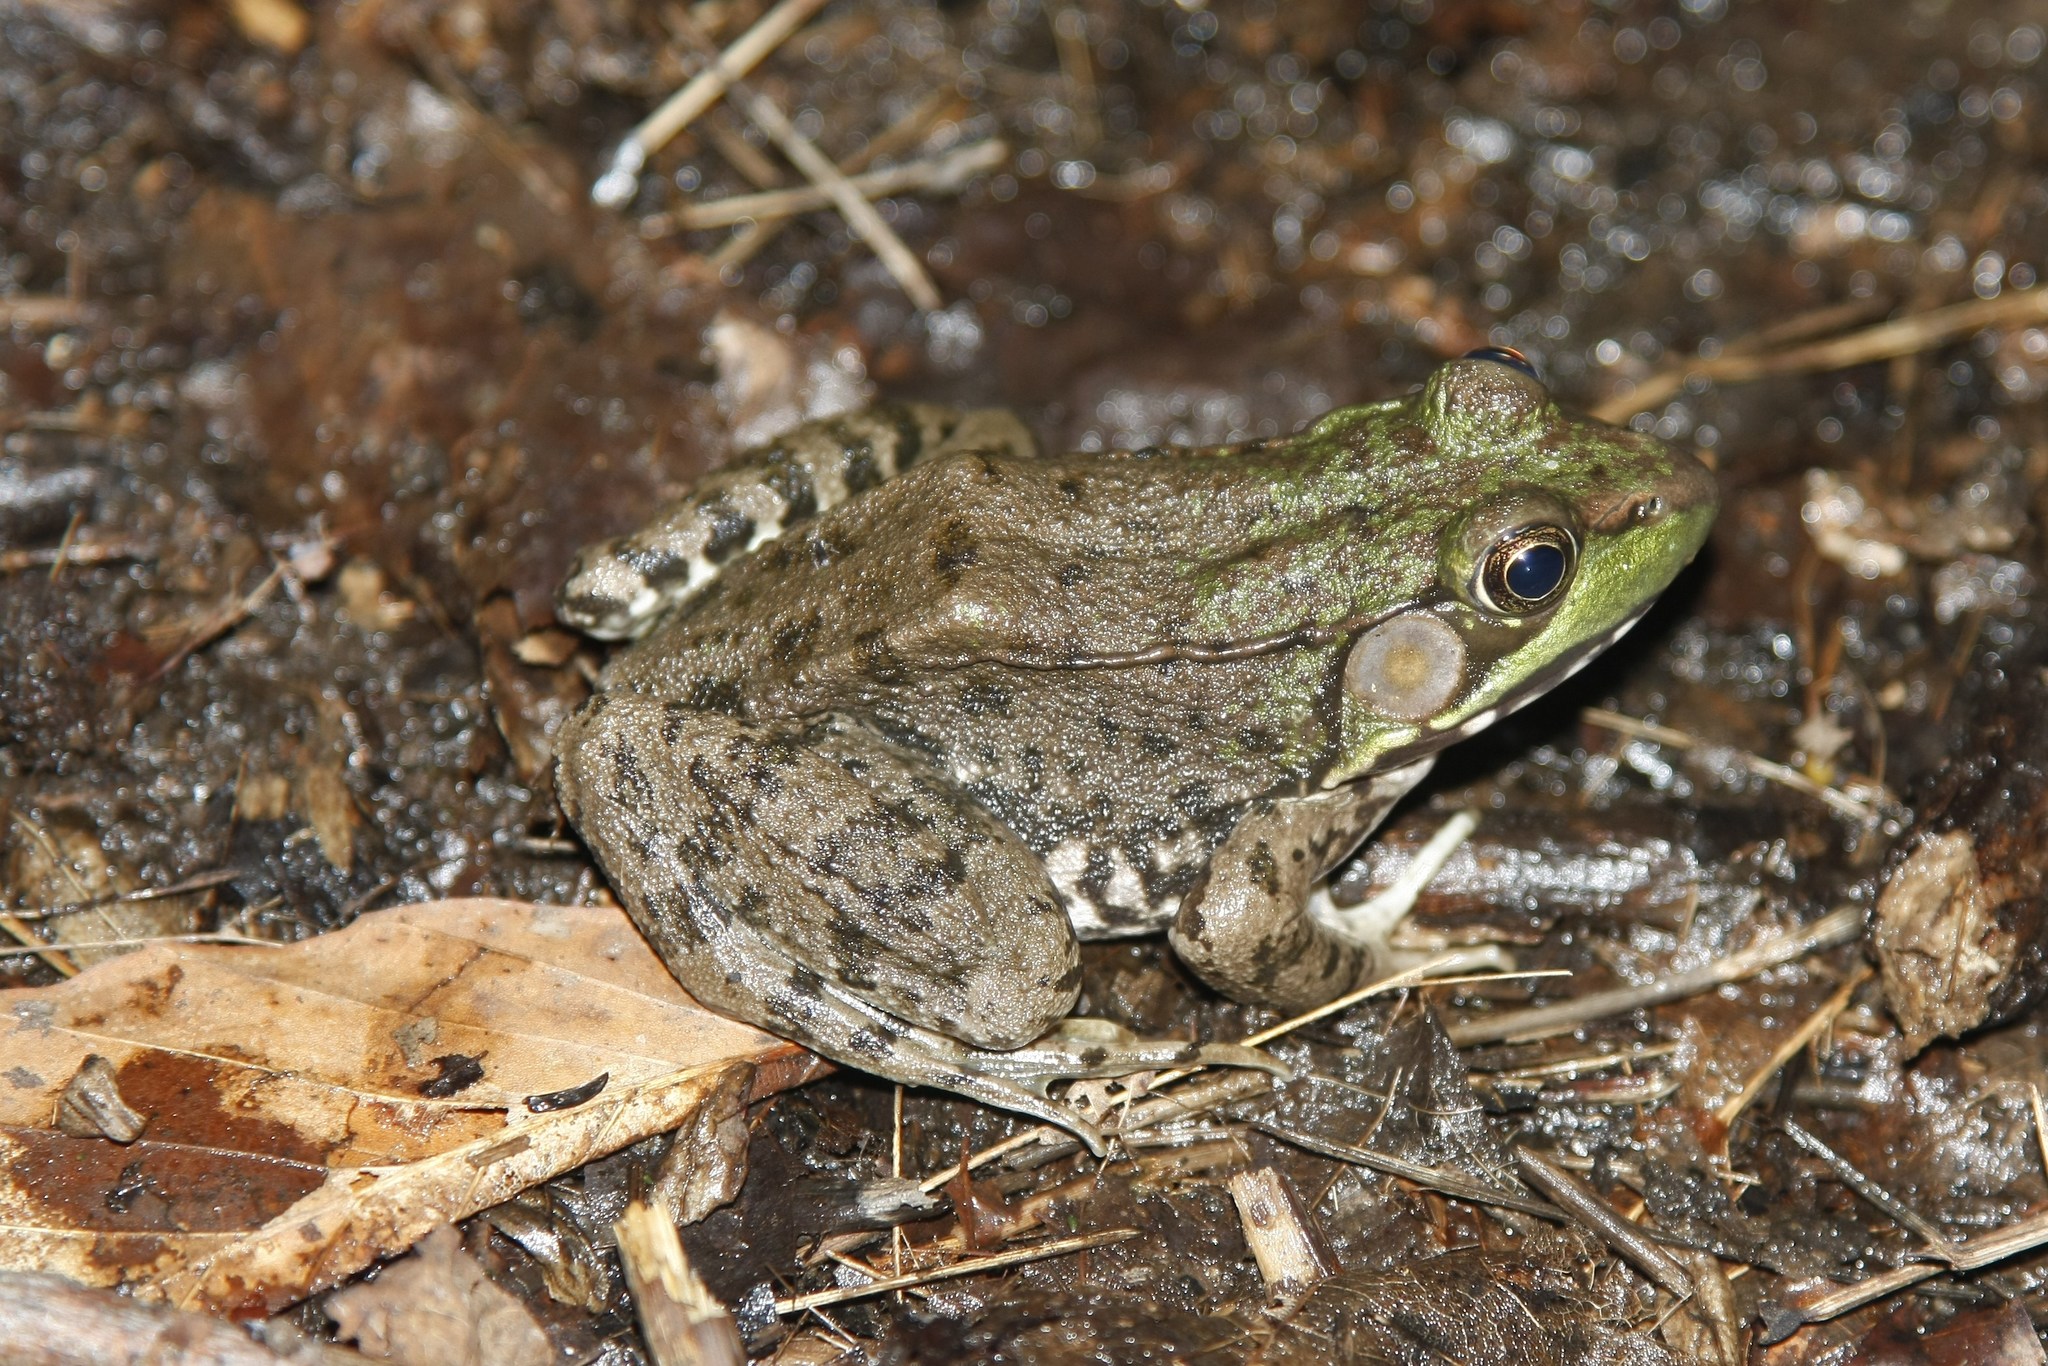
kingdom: Animalia
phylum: Chordata
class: Amphibia
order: Anura
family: Ranidae
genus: Lithobates
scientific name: Lithobates clamitans
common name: Green frog
